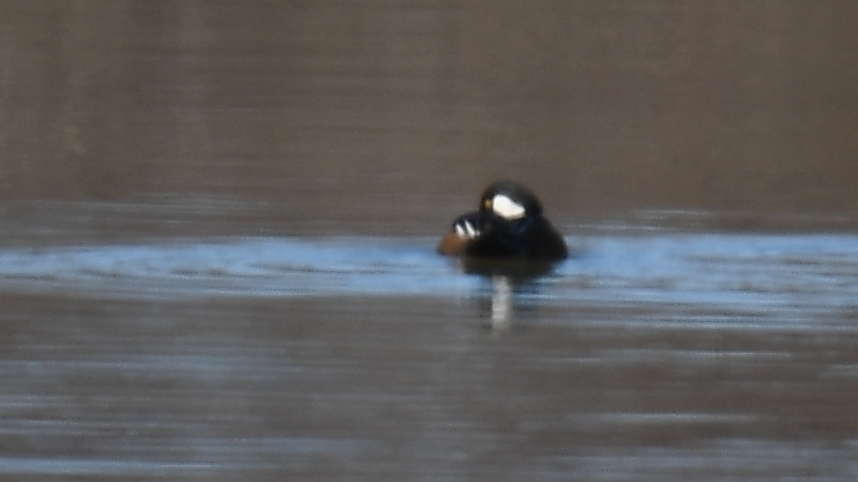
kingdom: Animalia
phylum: Chordata
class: Aves
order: Anseriformes
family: Anatidae
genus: Lophodytes
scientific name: Lophodytes cucullatus
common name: Hooded merganser
